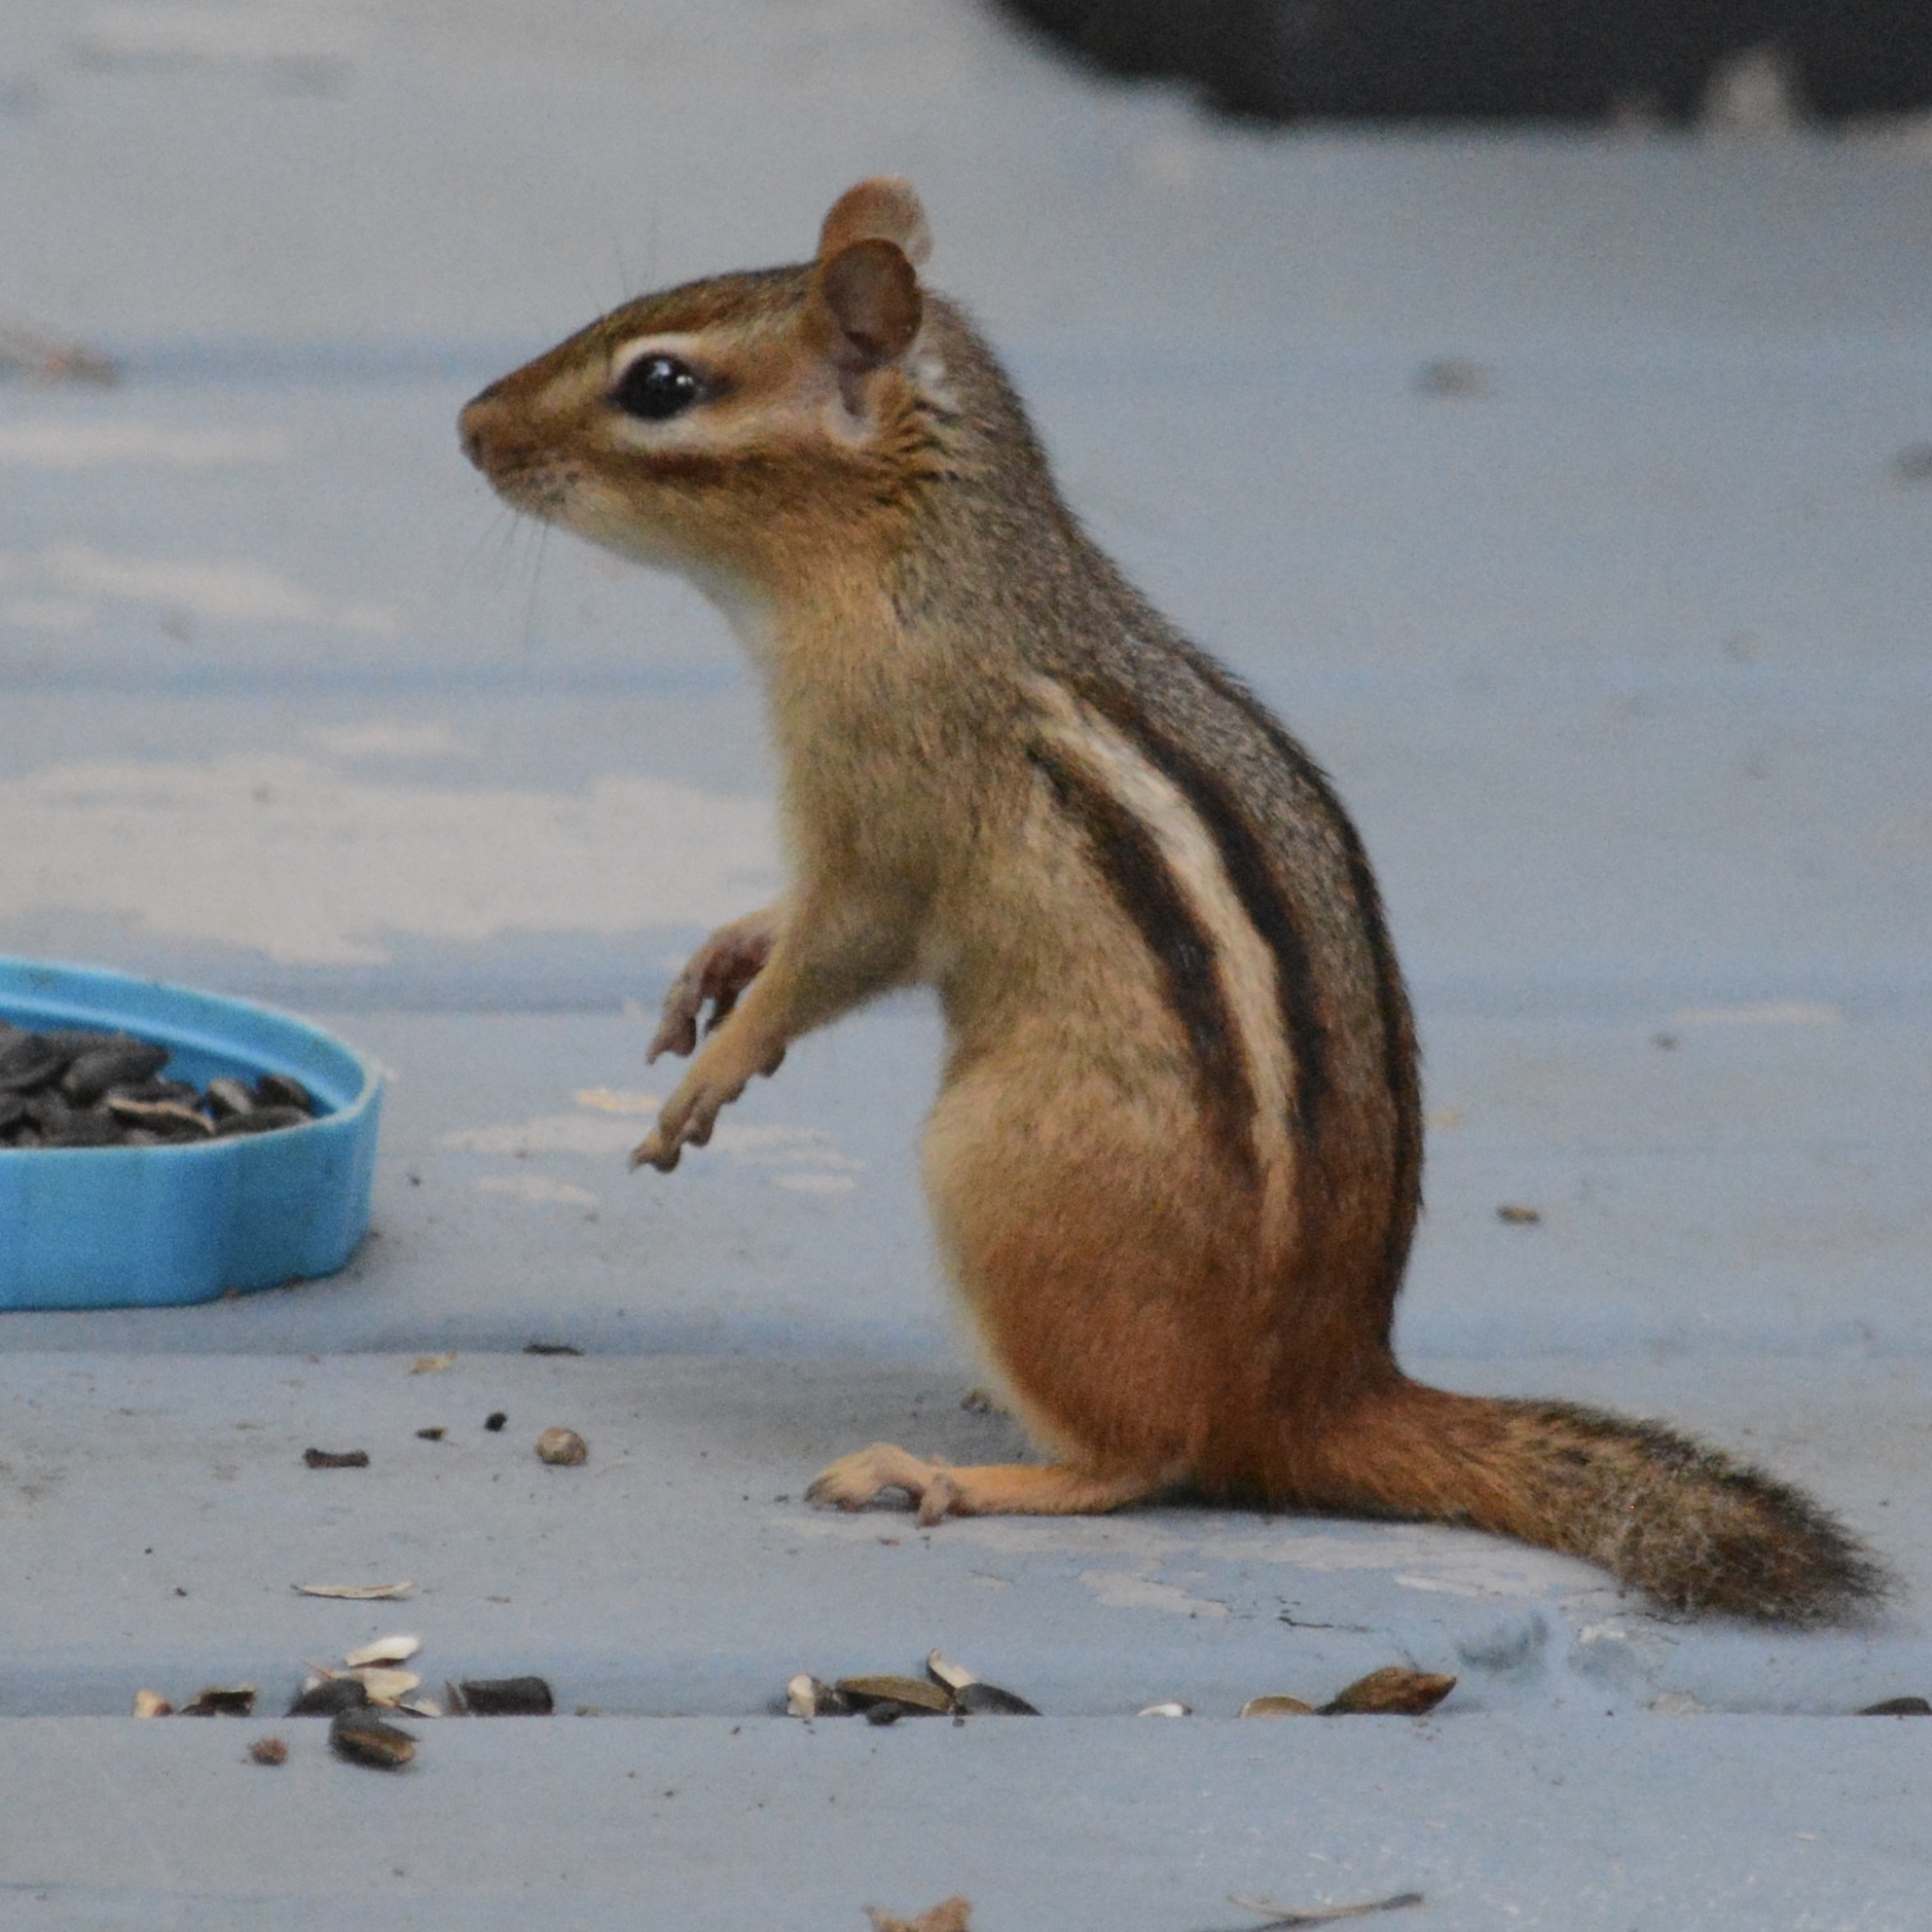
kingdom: Animalia
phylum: Chordata
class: Mammalia
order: Rodentia
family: Sciuridae
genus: Tamias
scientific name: Tamias striatus
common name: Eastern chipmunk
